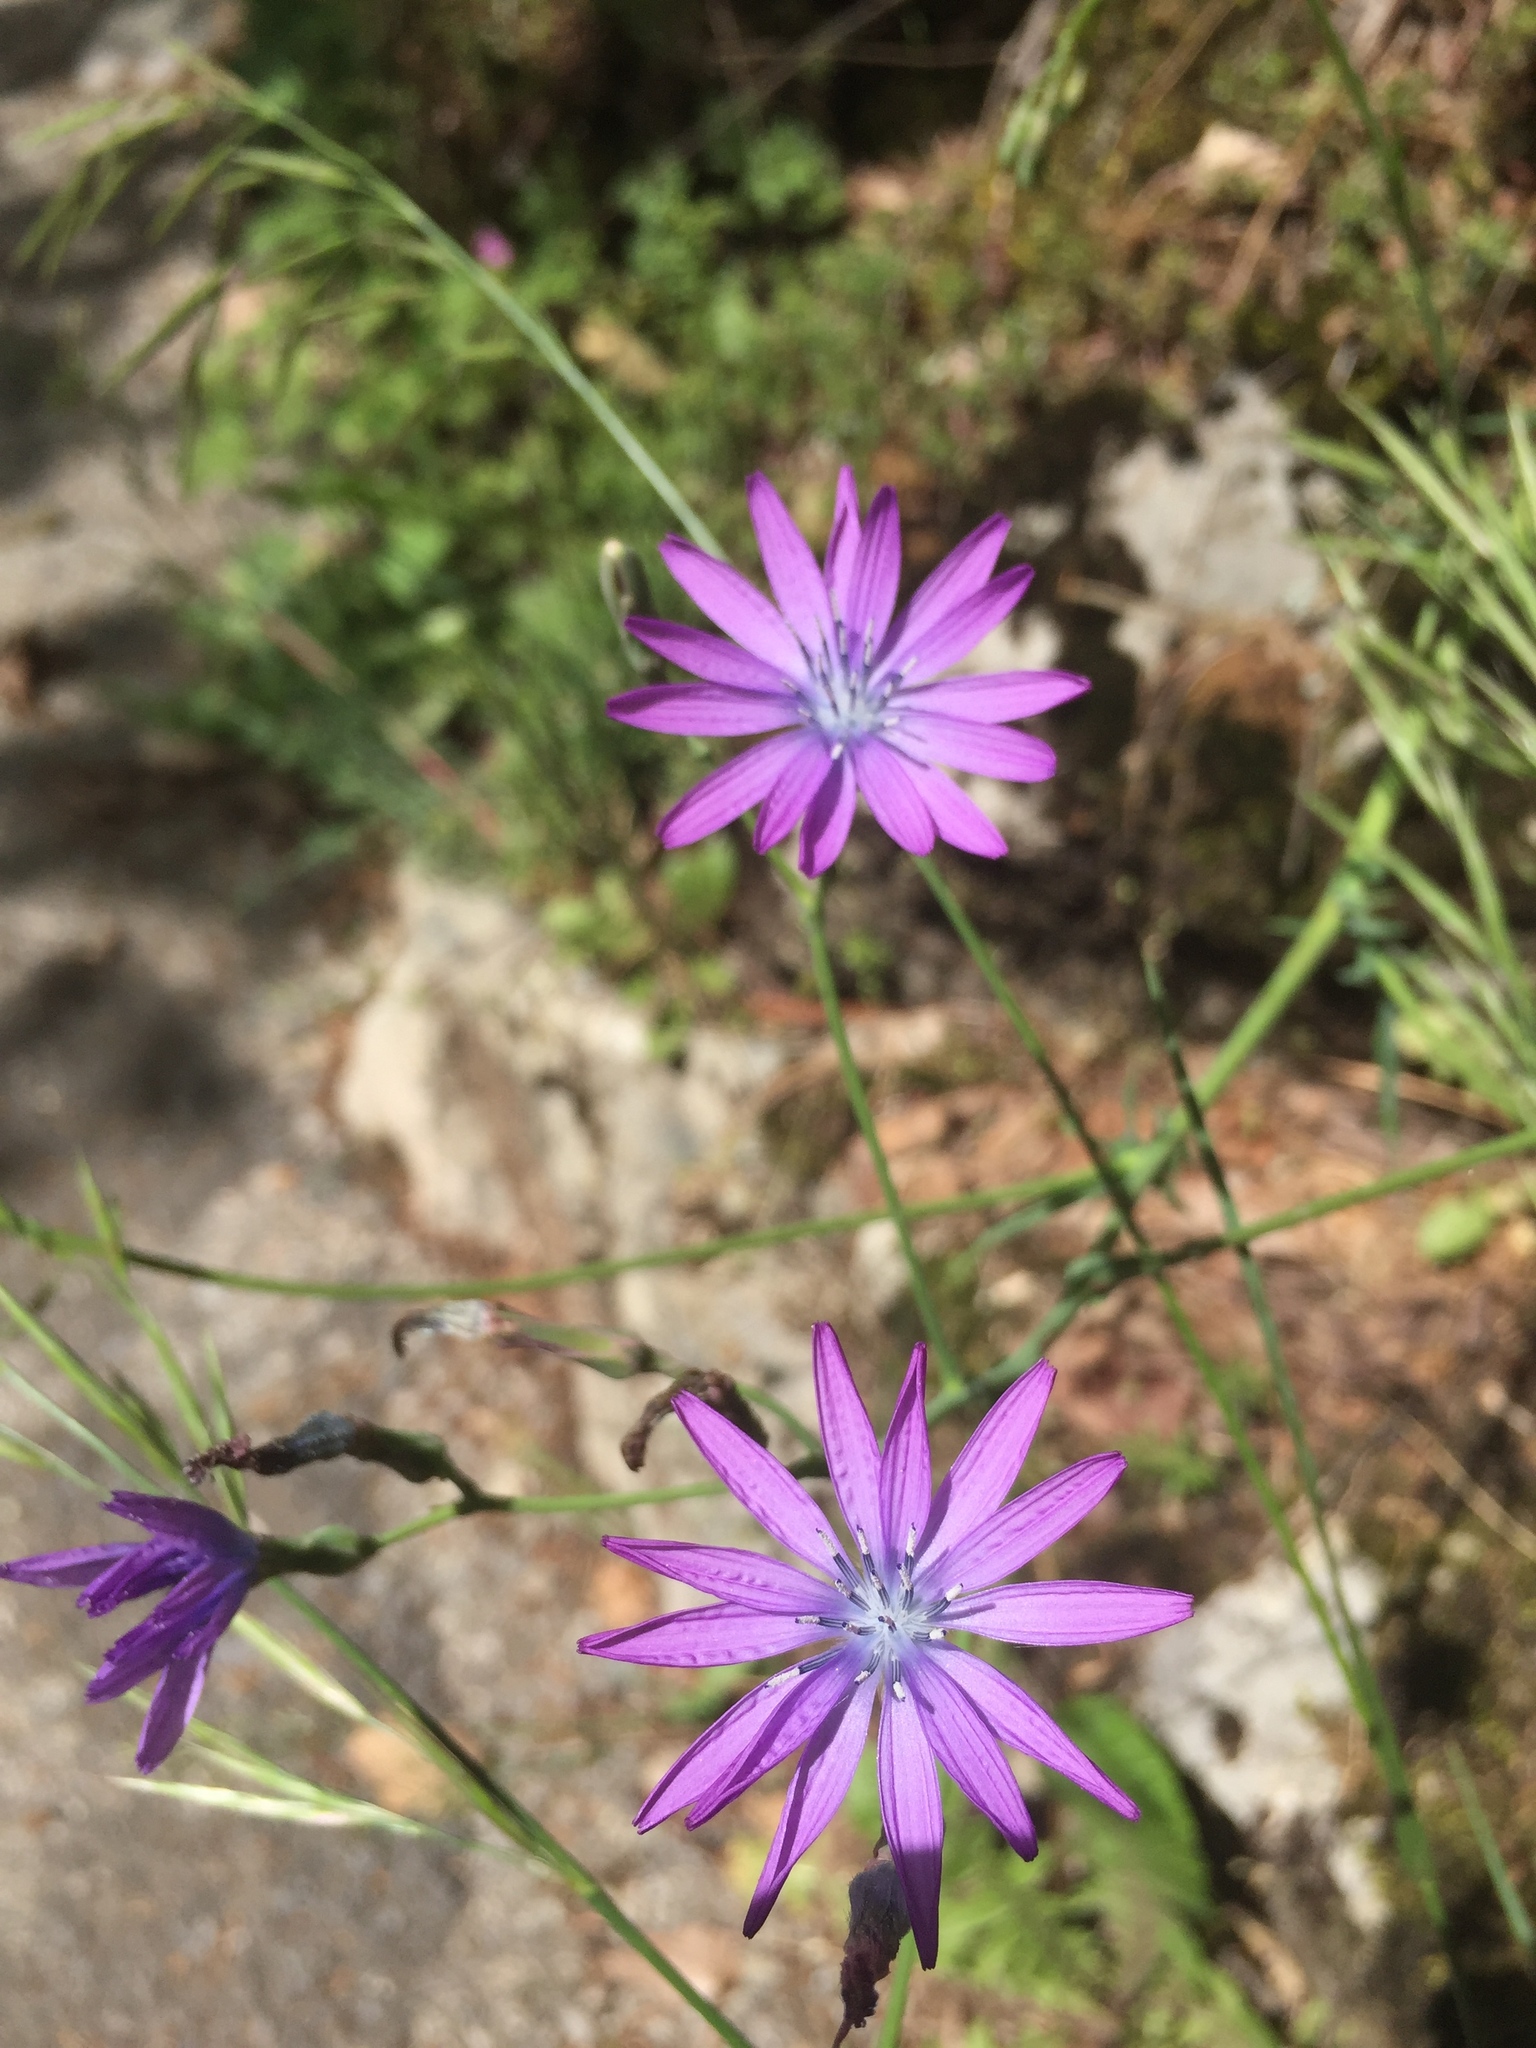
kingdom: Plantae
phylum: Tracheophyta
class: Magnoliopsida
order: Asterales
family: Asteraceae
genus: Lactuca
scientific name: Lactuca perennis
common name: Mountain lettuce
